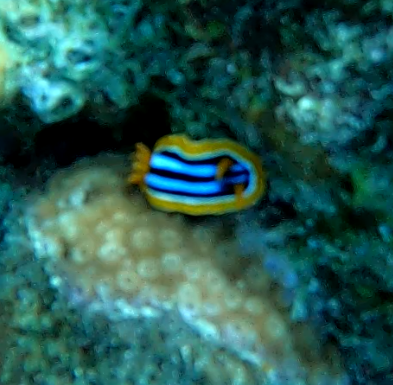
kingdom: Animalia
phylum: Mollusca
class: Gastropoda
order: Nudibranchia
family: Chromodorididae
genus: Chromodoris
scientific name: Chromodoris quadricolor
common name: Striped pyjama nudibranch
